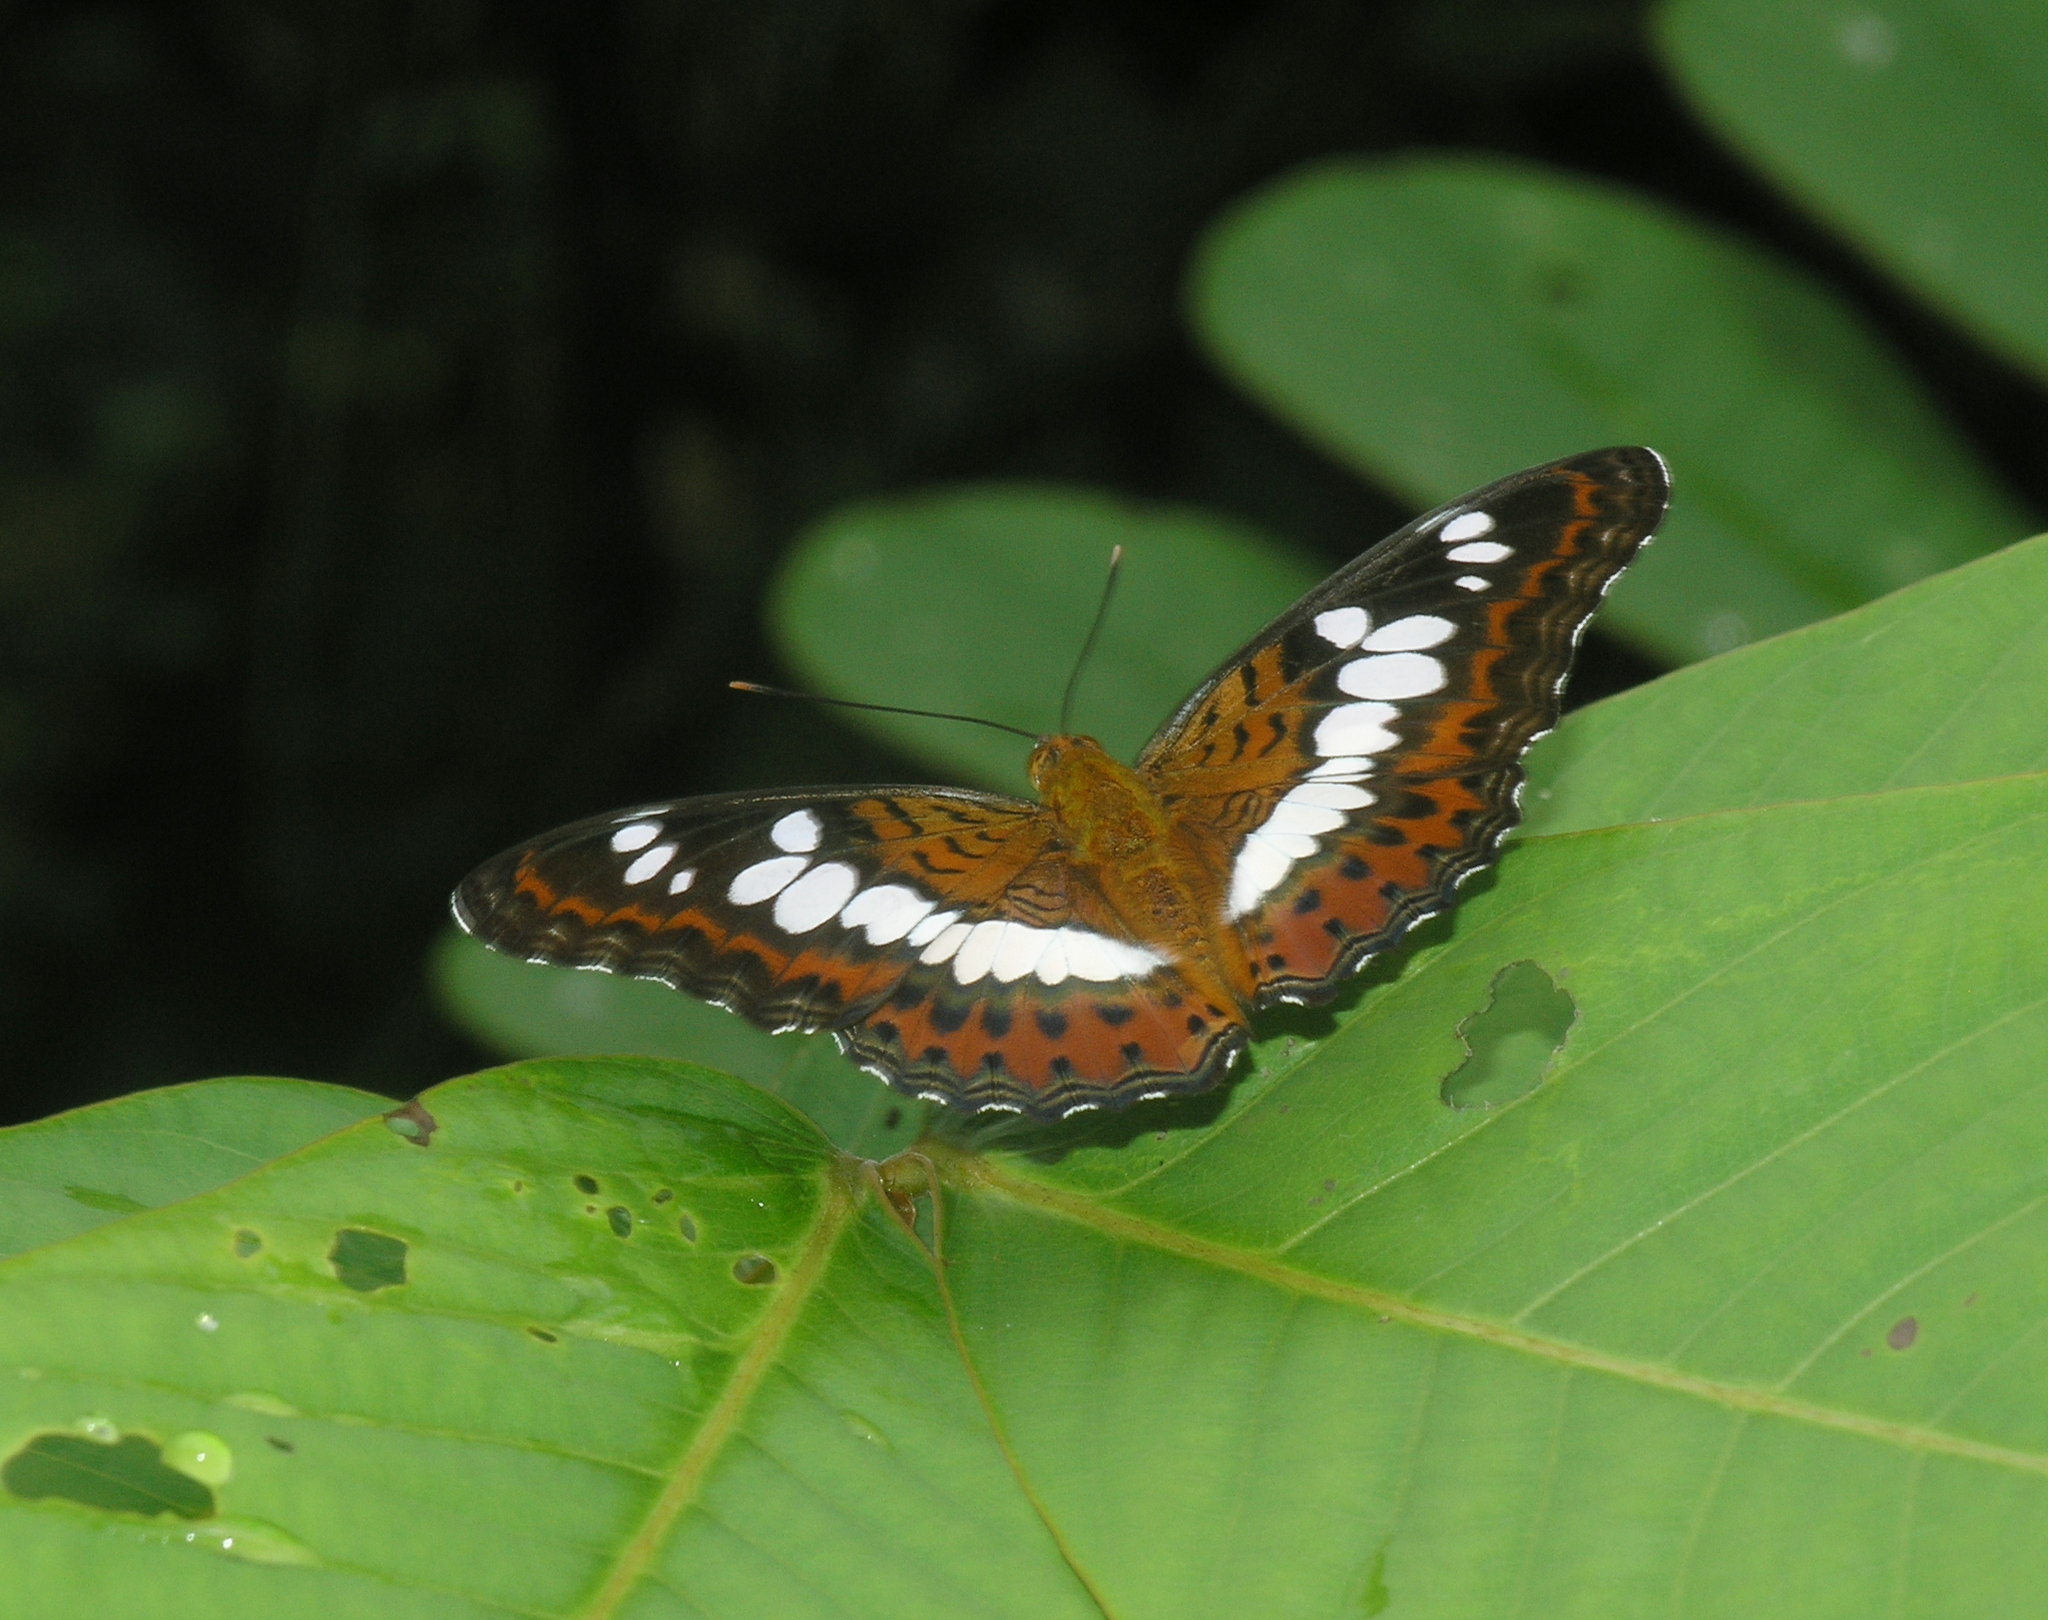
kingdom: Animalia
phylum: Arthropoda
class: Insecta
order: Lepidoptera
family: Nymphalidae
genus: Limenitis
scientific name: Limenitis Moduza procris
